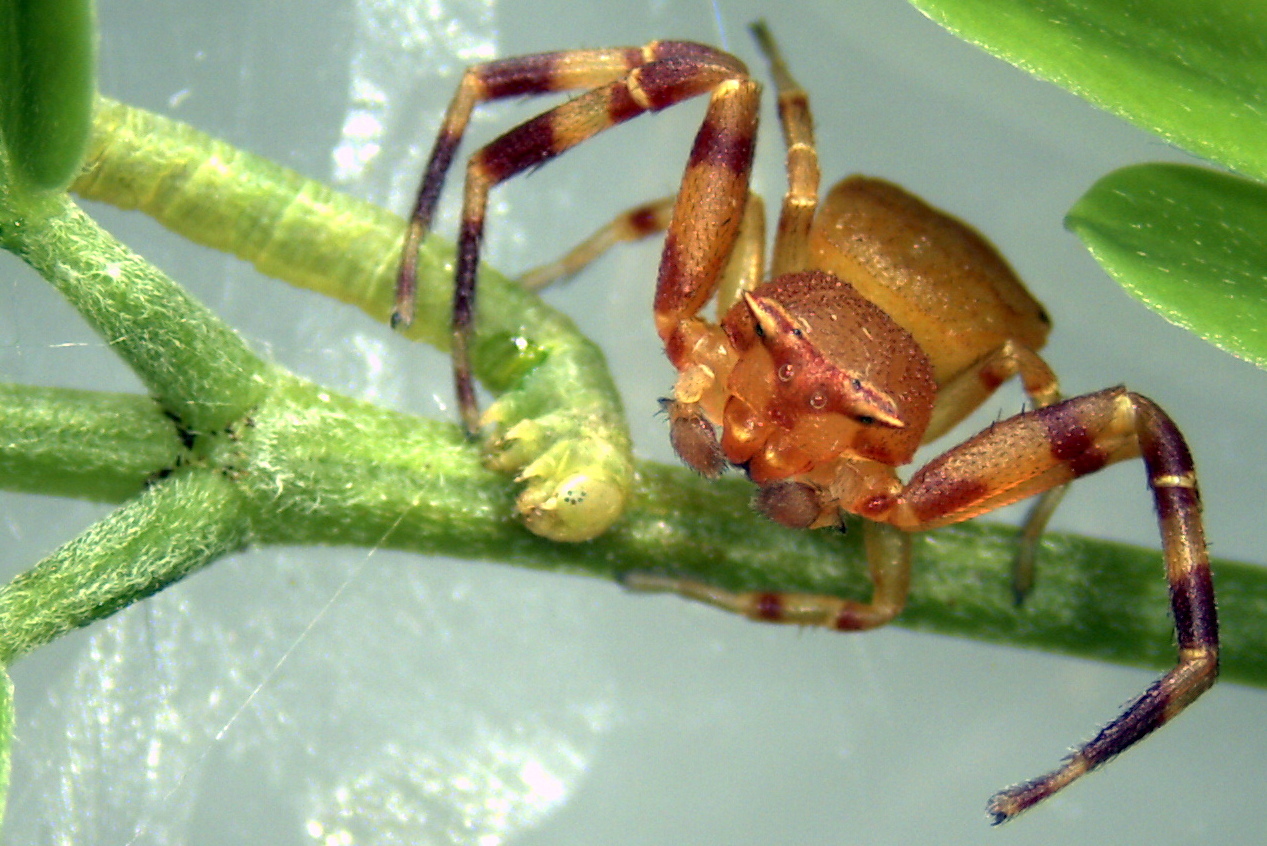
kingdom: Animalia
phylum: Arthropoda
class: Arachnida
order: Araneae
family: Thomisidae
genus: Thomisus
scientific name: Thomisus spectabilis
